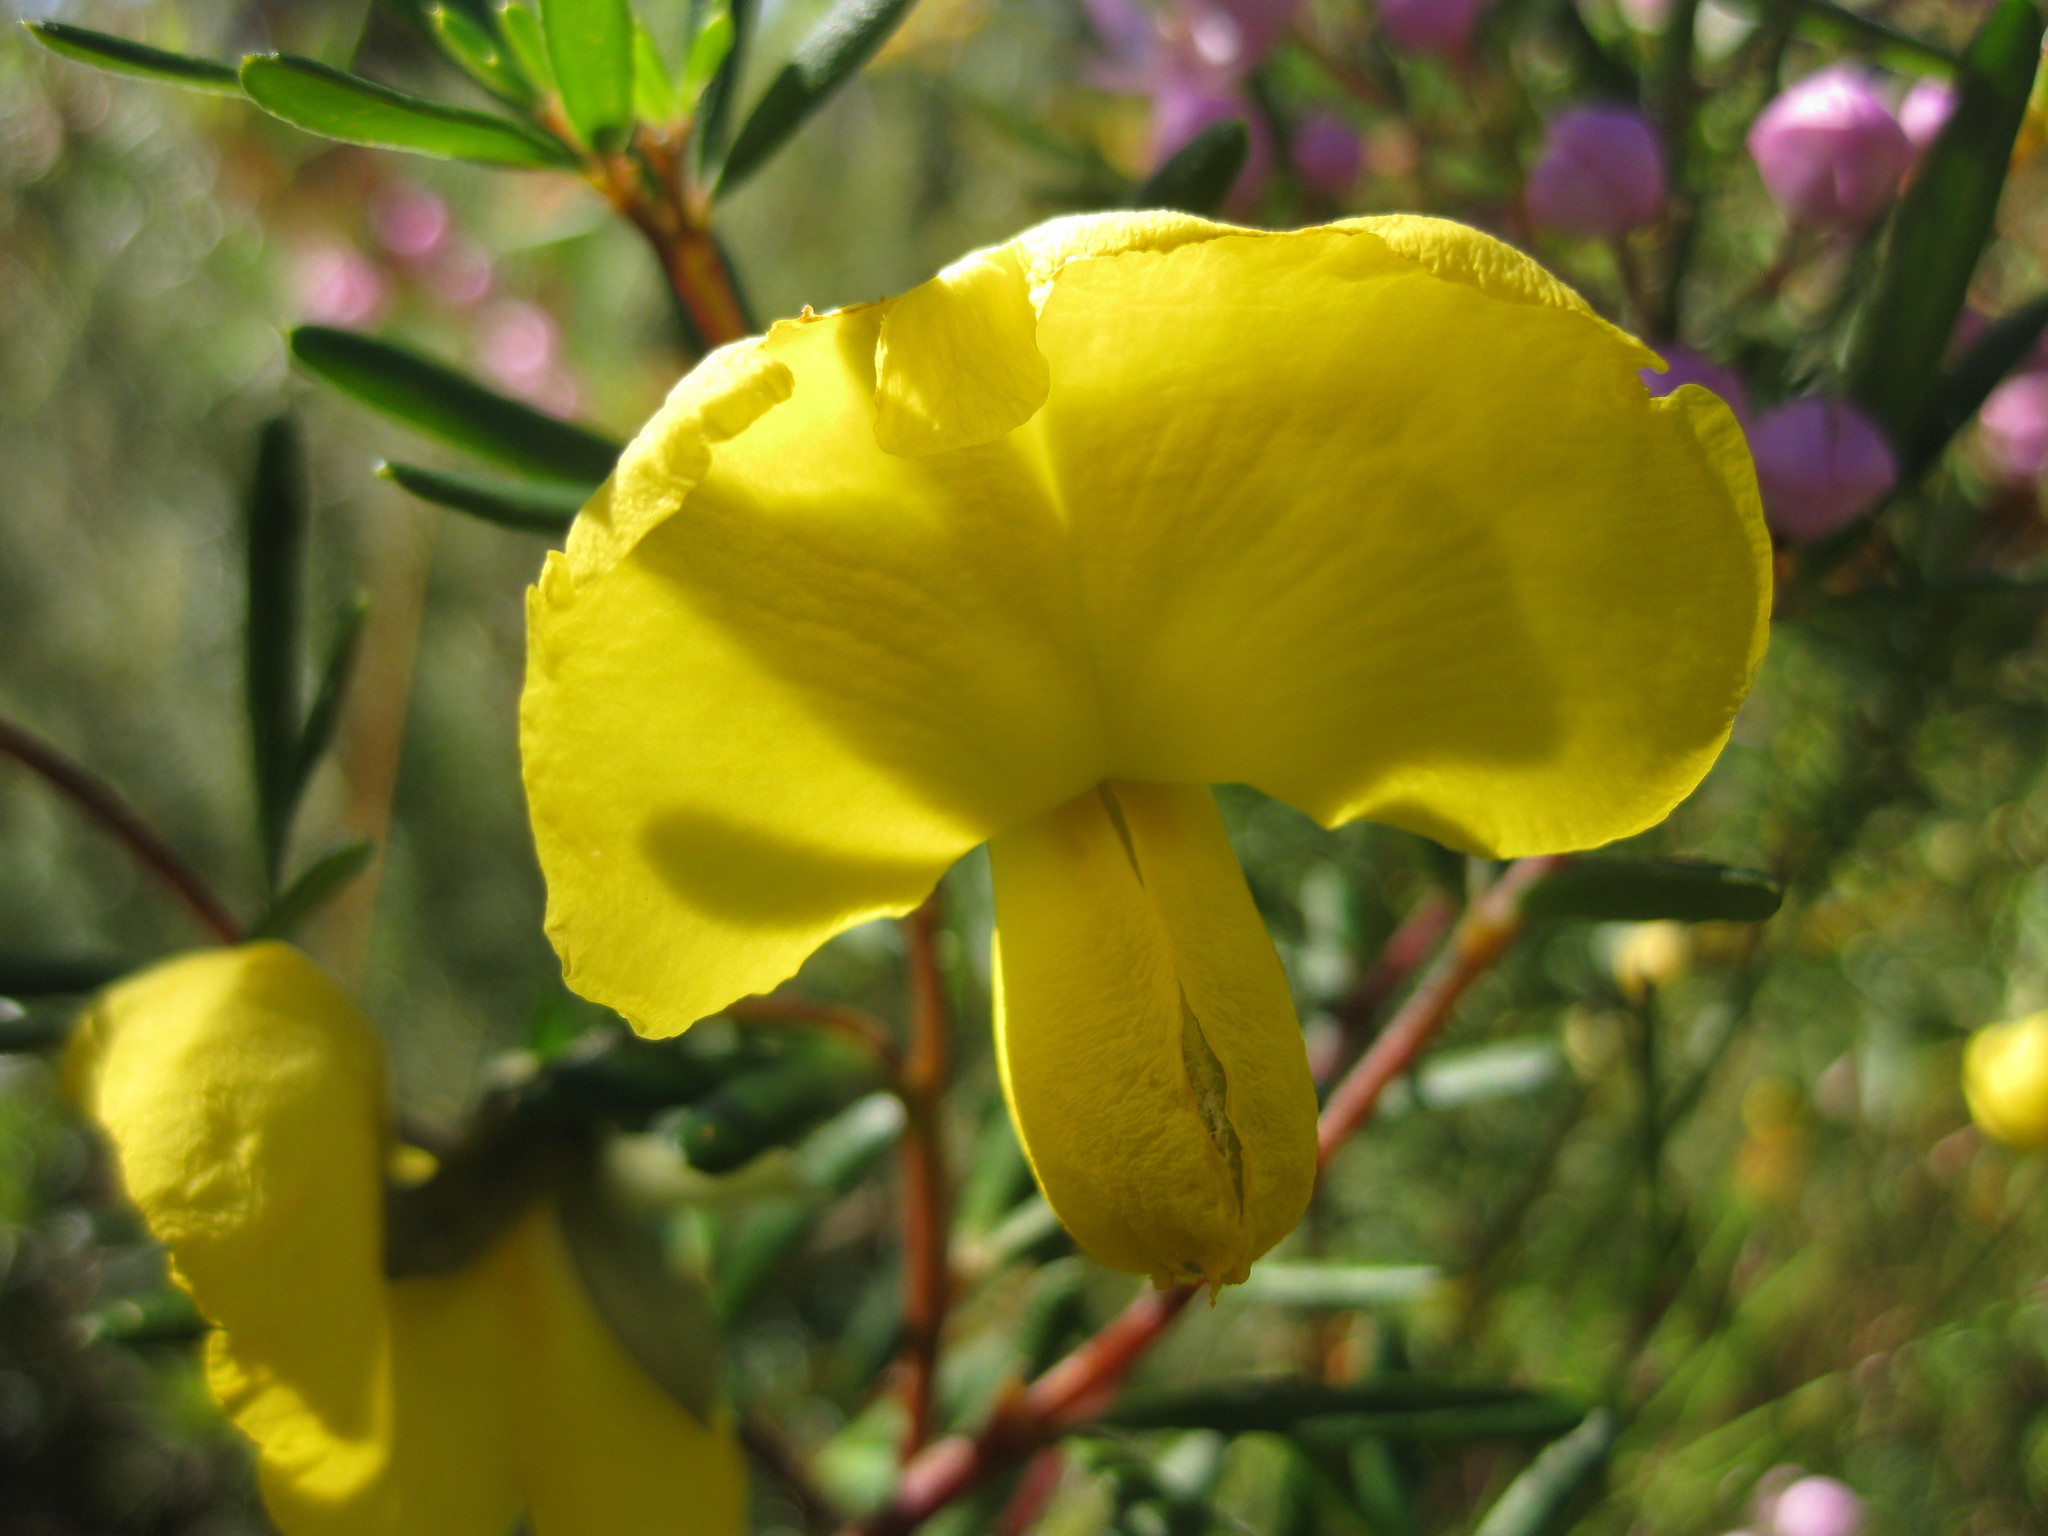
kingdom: Plantae
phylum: Tracheophyta
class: Magnoliopsida
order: Fabales
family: Fabaceae
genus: Gompholobium
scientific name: Gompholobium latifolium
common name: Broadleaf wedge-pea
